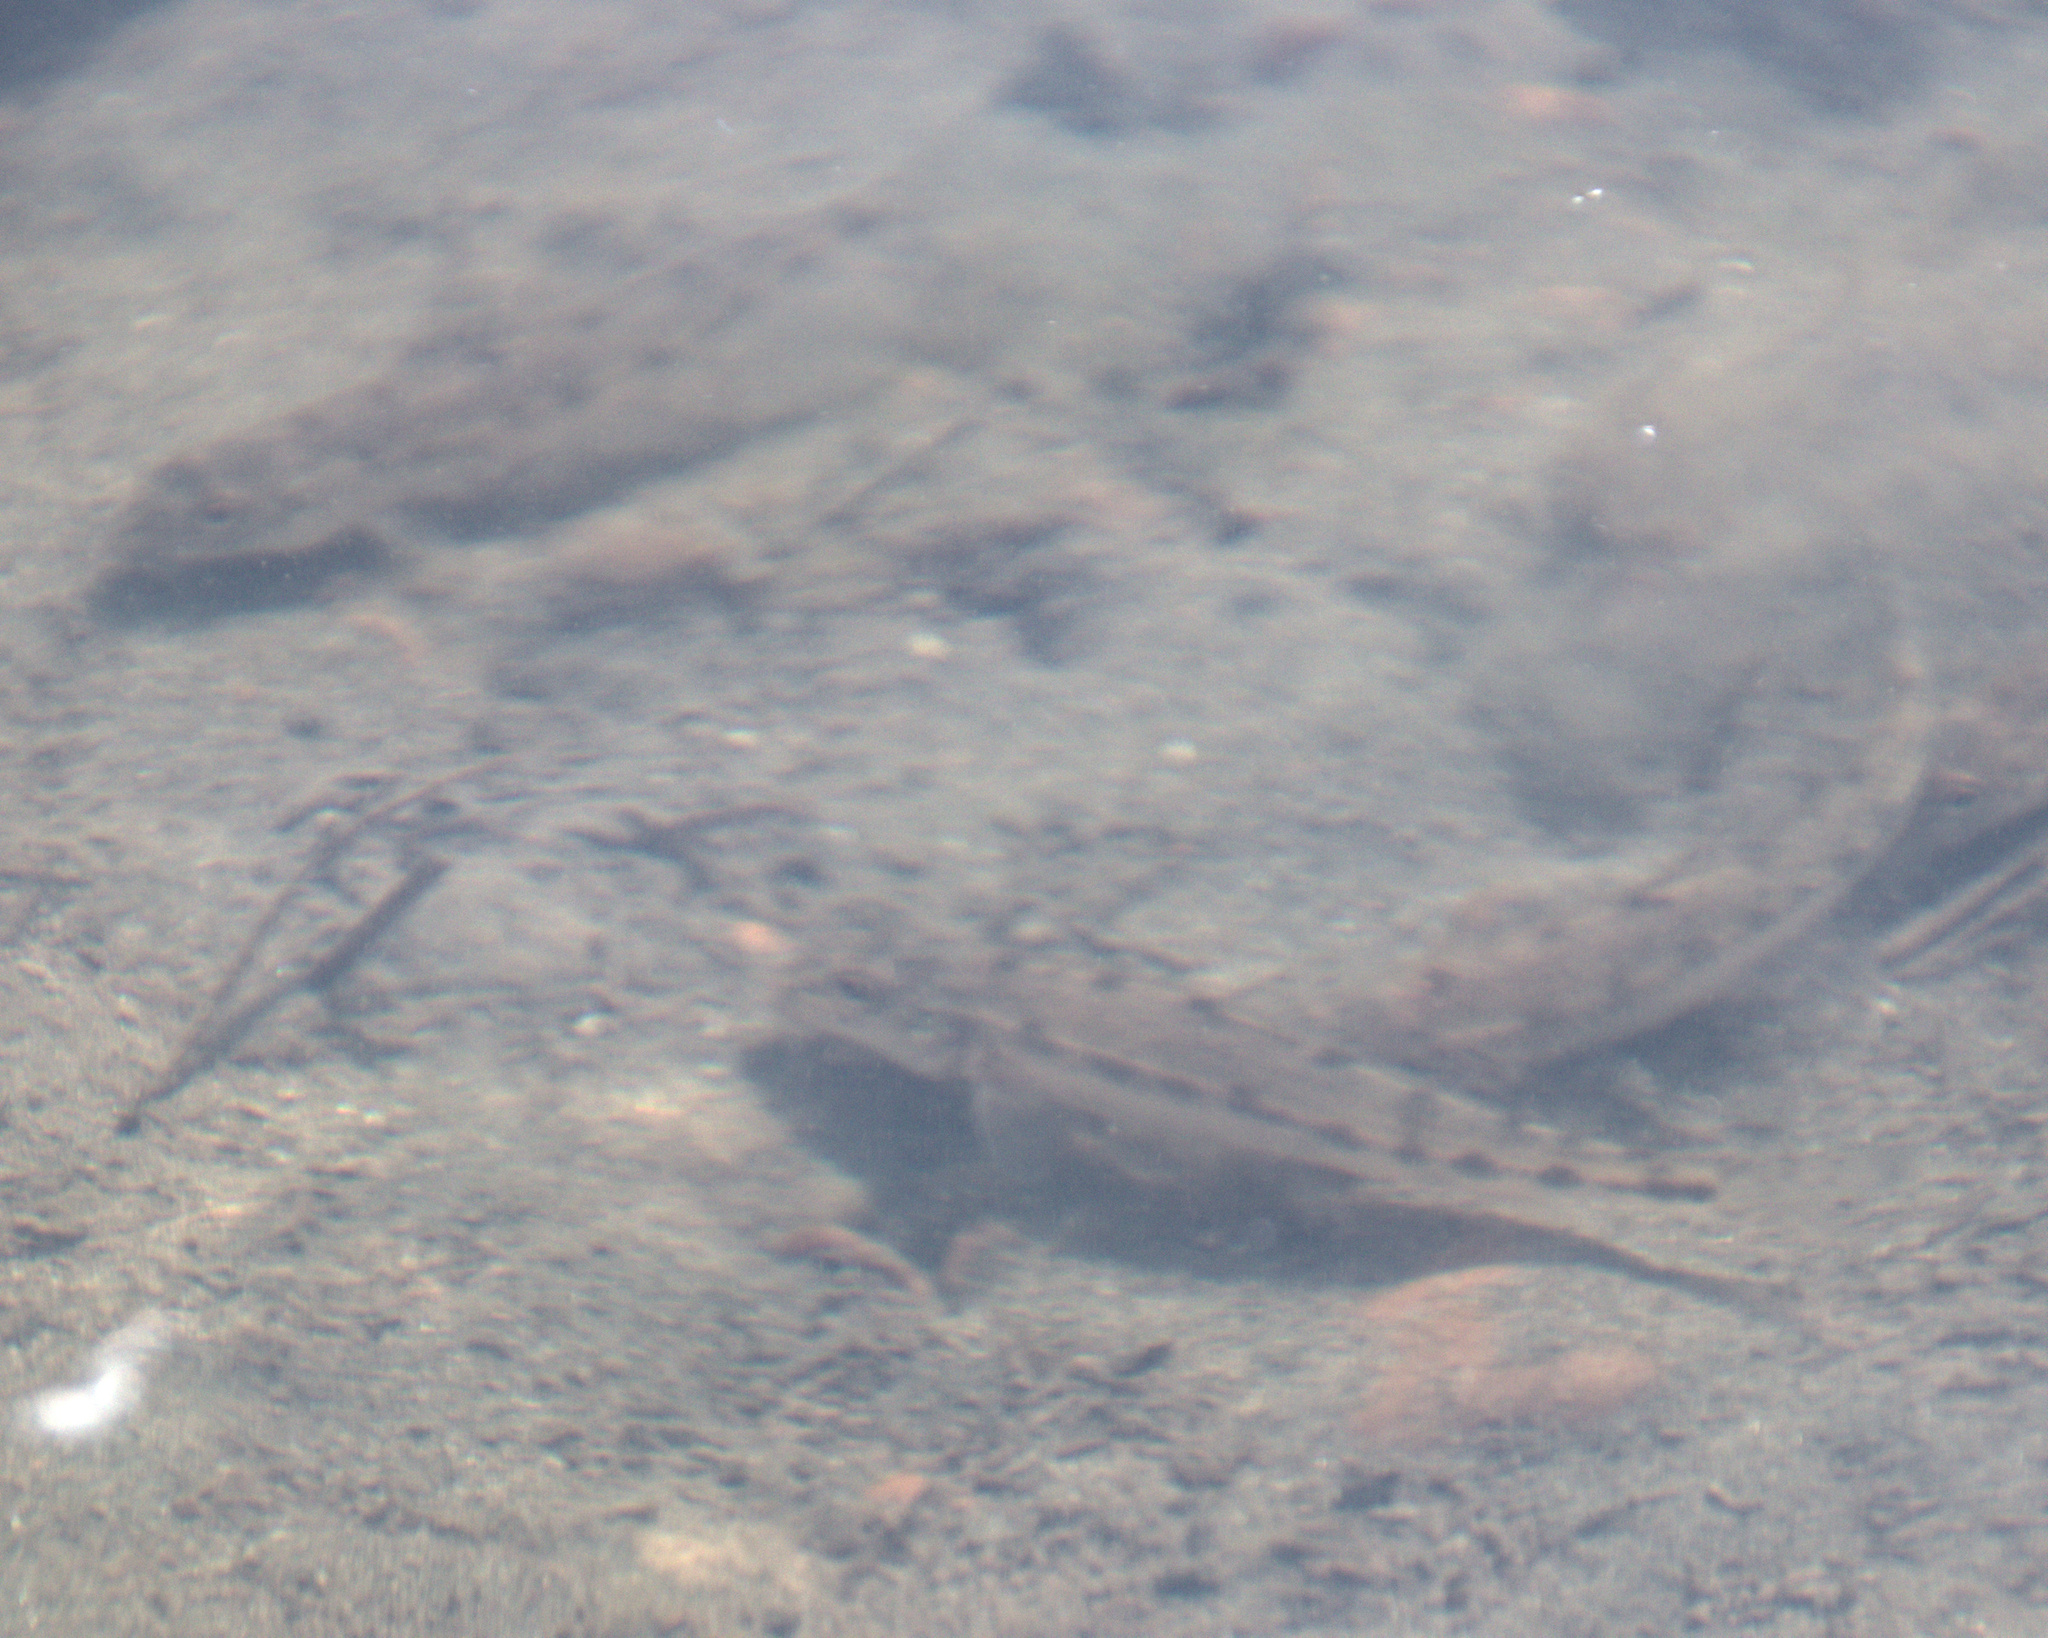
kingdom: Animalia
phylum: Chordata
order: Cypriniformes
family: Cyprinidae
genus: Gobio
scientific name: Gobio volgensis
